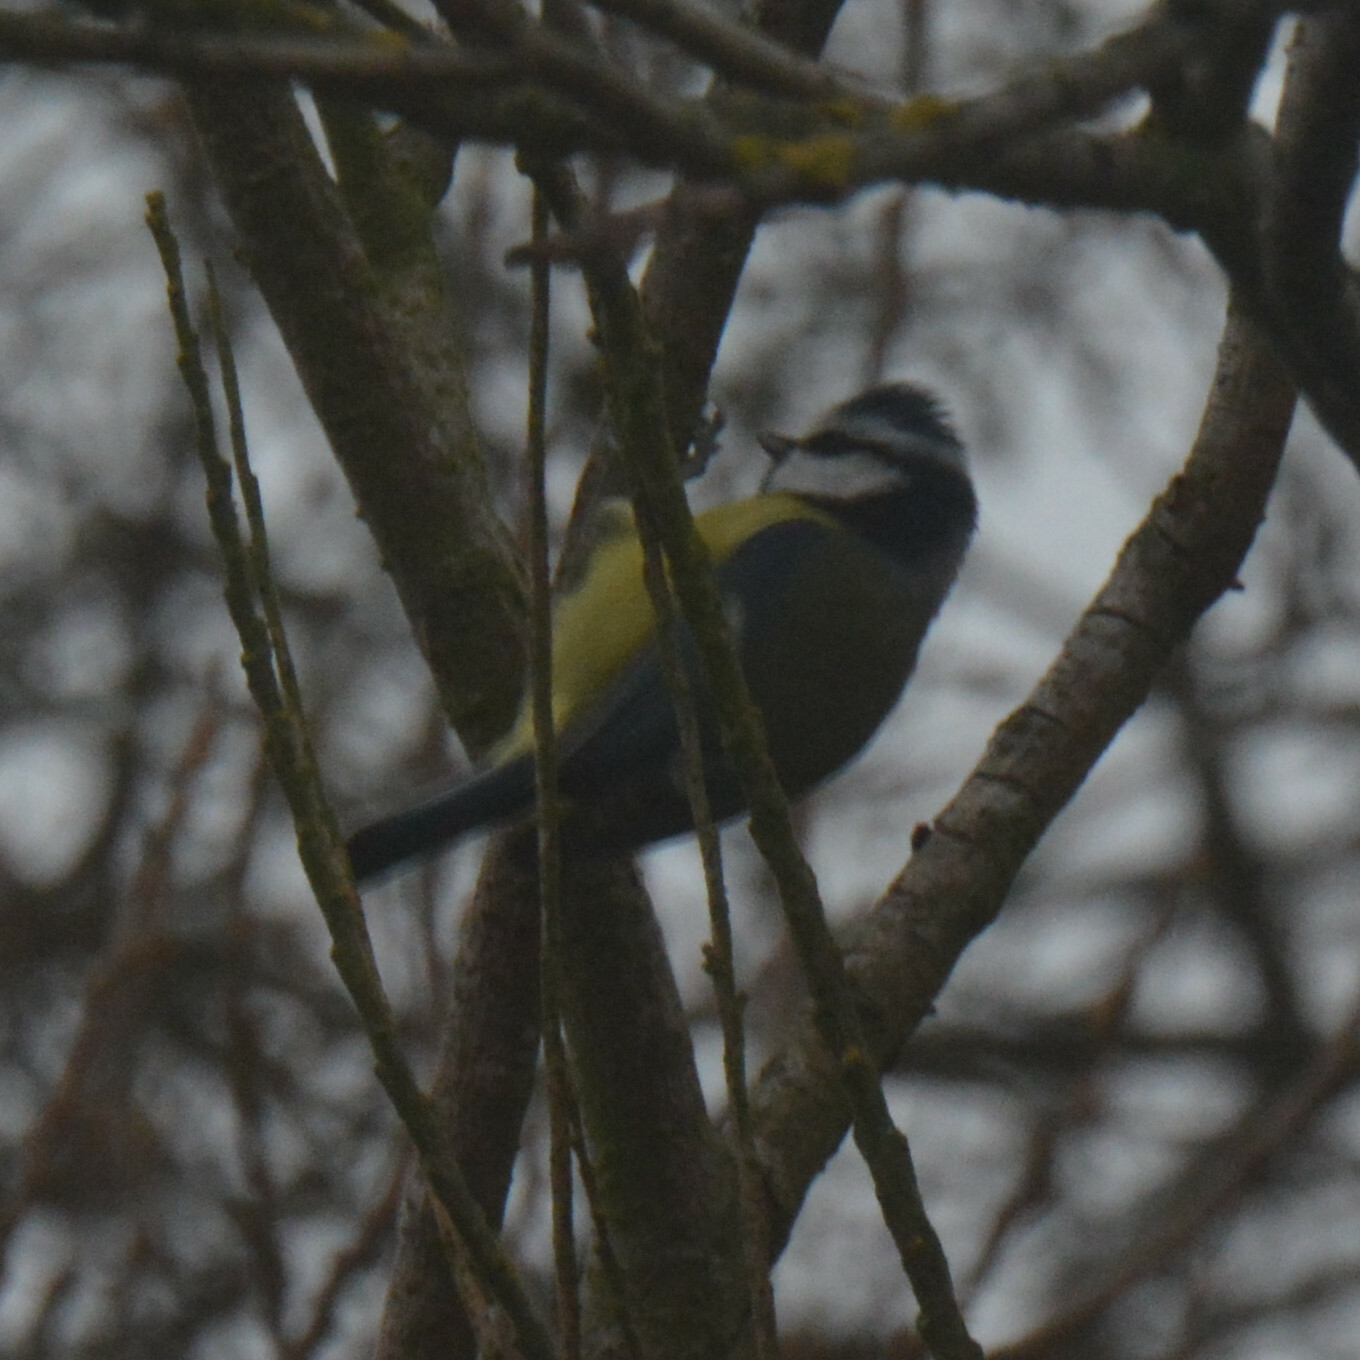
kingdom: Animalia
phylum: Chordata
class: Aves
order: Passeriformes
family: Paridae
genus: Cyanistes
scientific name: Cyanistes caeruleus
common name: Eurasian blue tit
